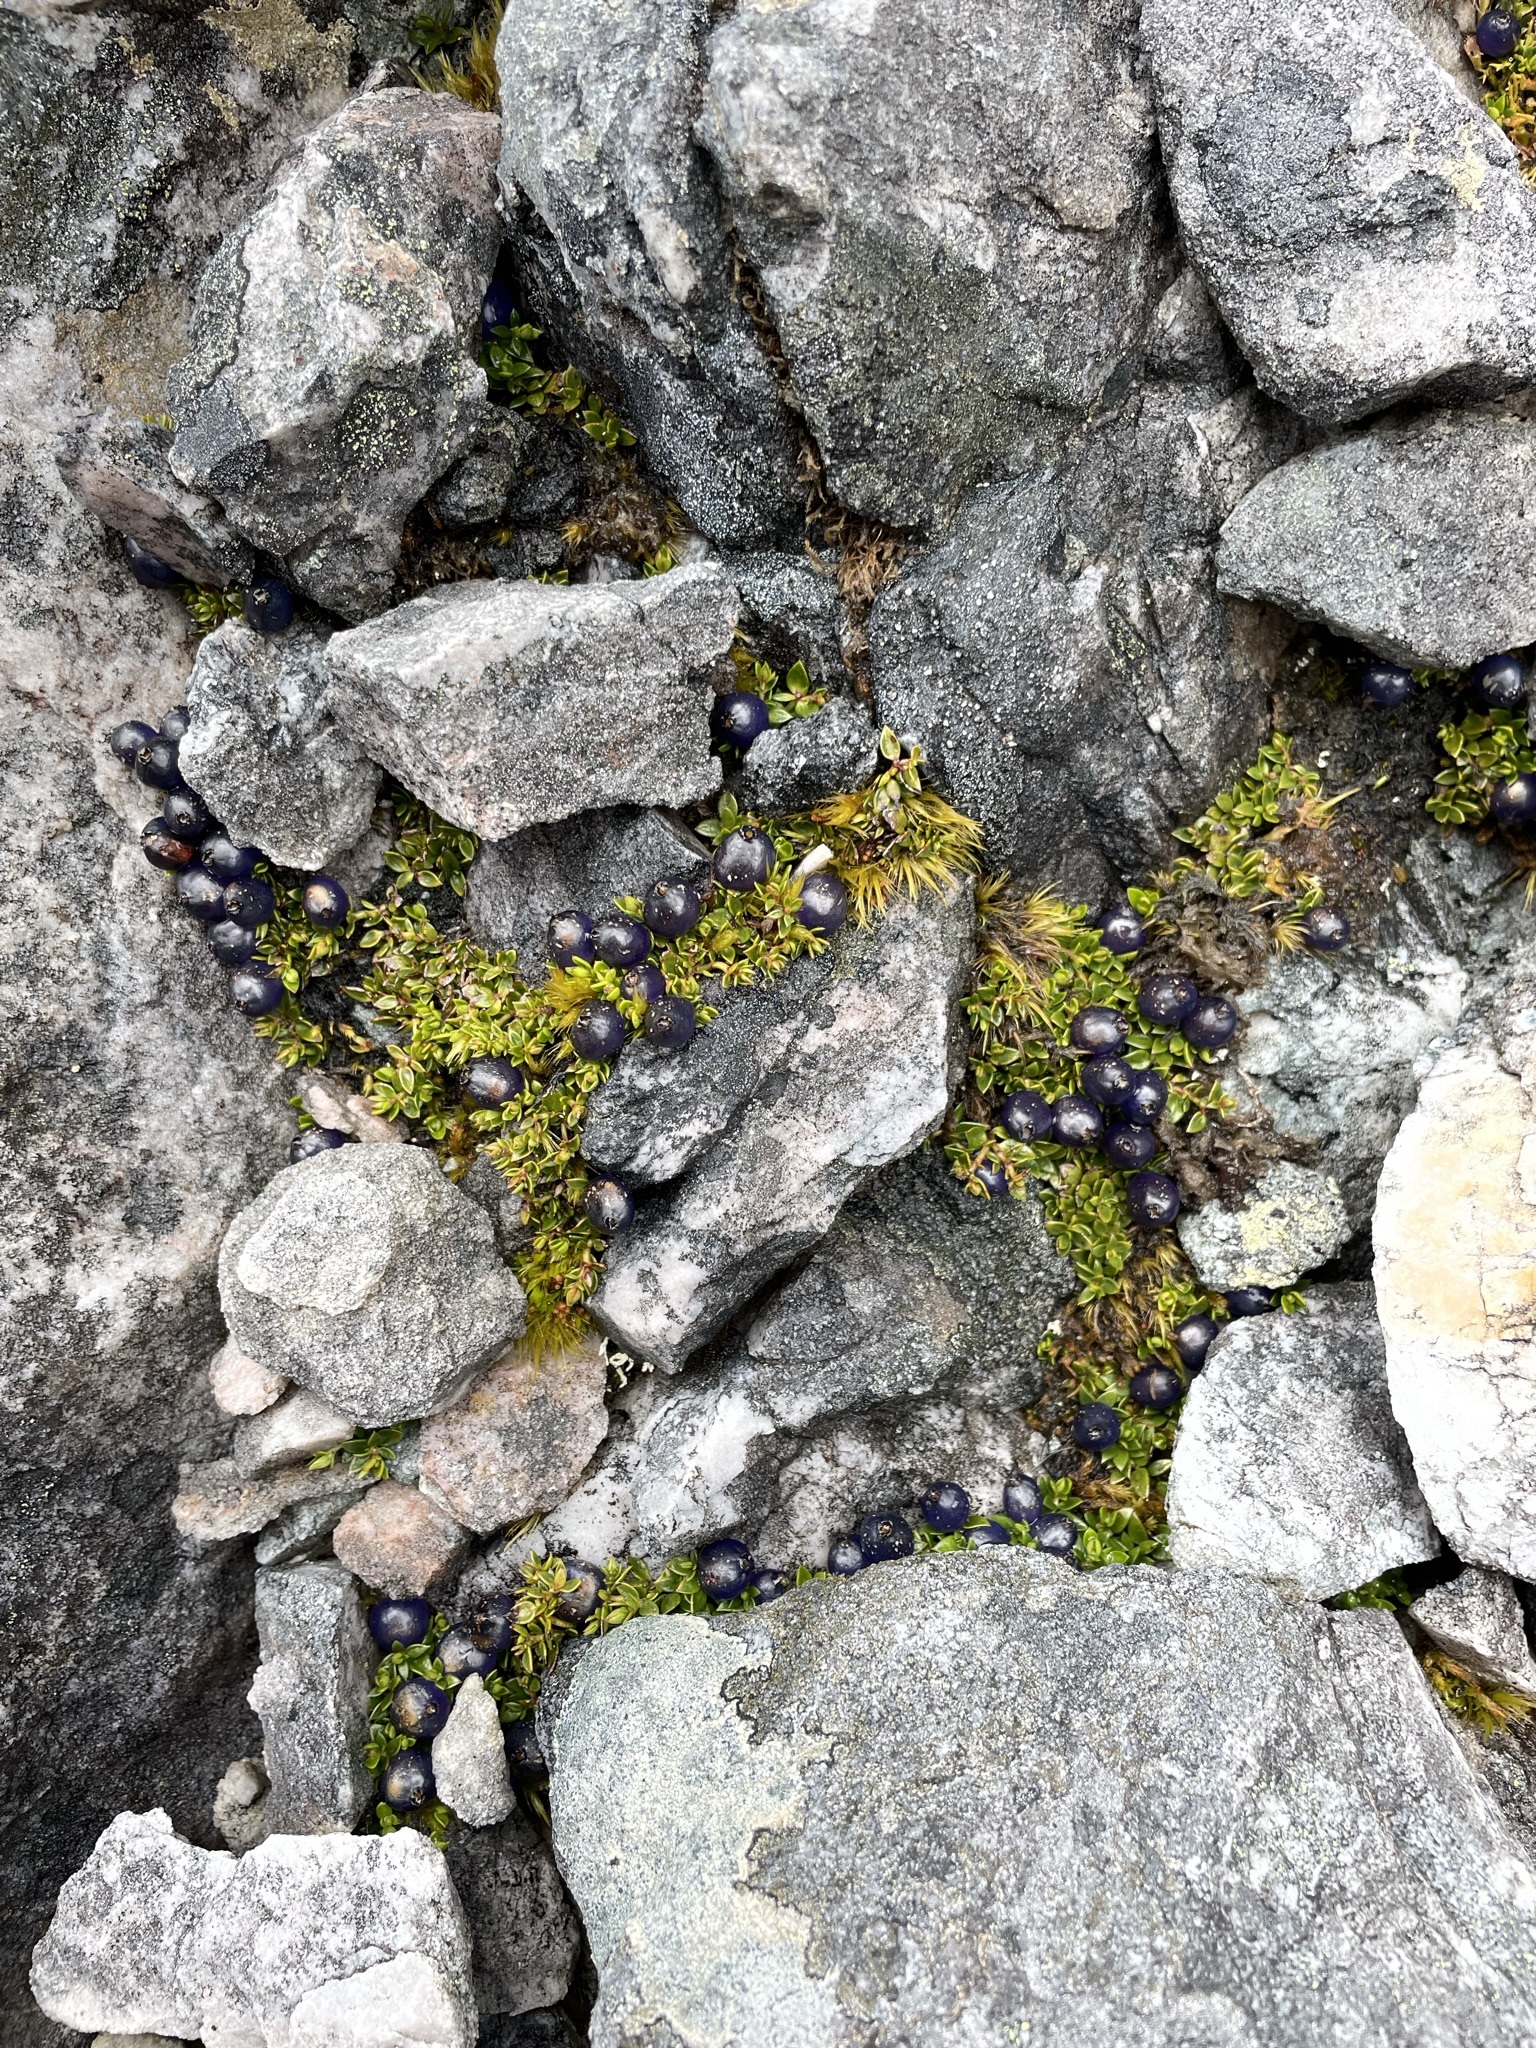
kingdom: Plantae
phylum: Tracheophyta
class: Magnoliopsida
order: Gentianales
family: Rubiaceae
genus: Coprosma
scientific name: Coprosma moorei
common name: Turquoise coprosma
